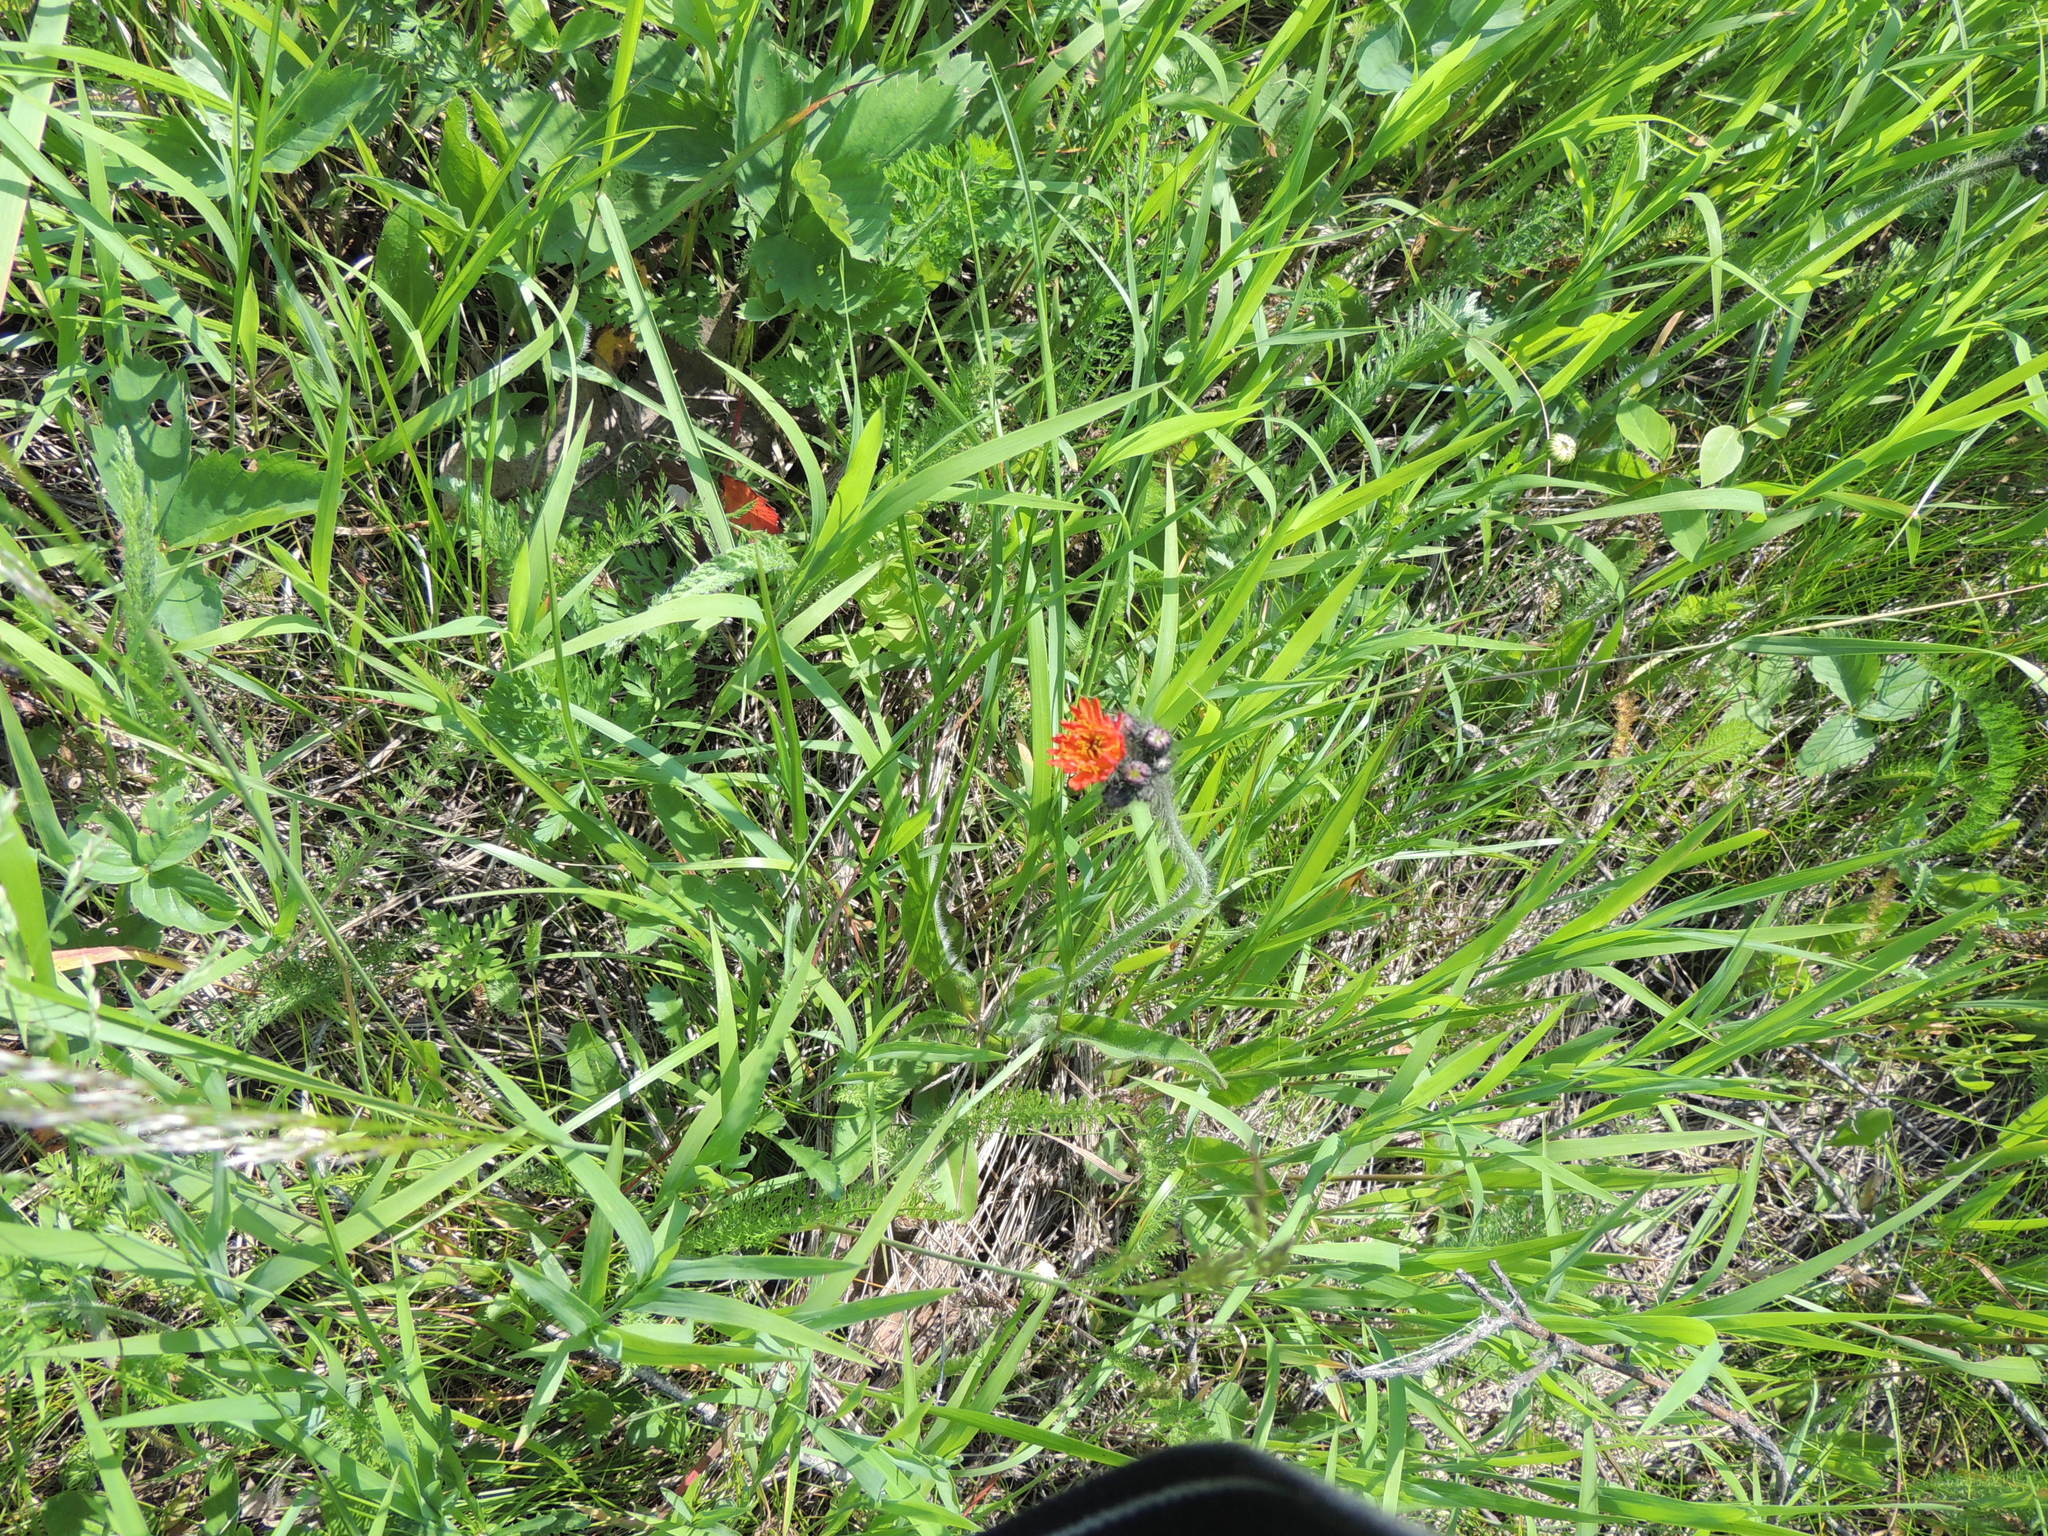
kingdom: Plantae
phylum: Tracheophyta
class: Magnoliopsida
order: Asterales
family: Asteraceae
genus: Pilosella
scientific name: Pilosella aurantiaca
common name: Fox-and-cubs
